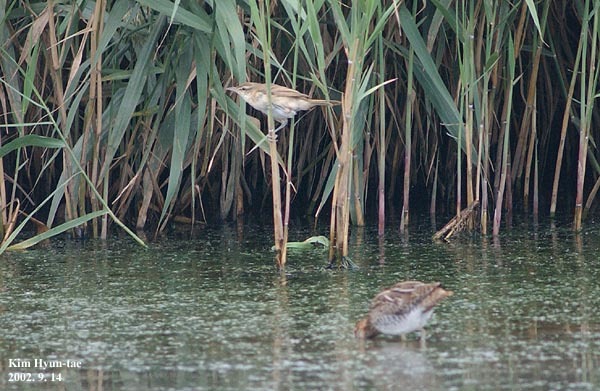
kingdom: Animalia
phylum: Chordata
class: Aves
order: Passeriformes
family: Acrocephalidae
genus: Acrocephalus
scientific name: Acrocephalus orientalis
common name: Oriental reed warbler
